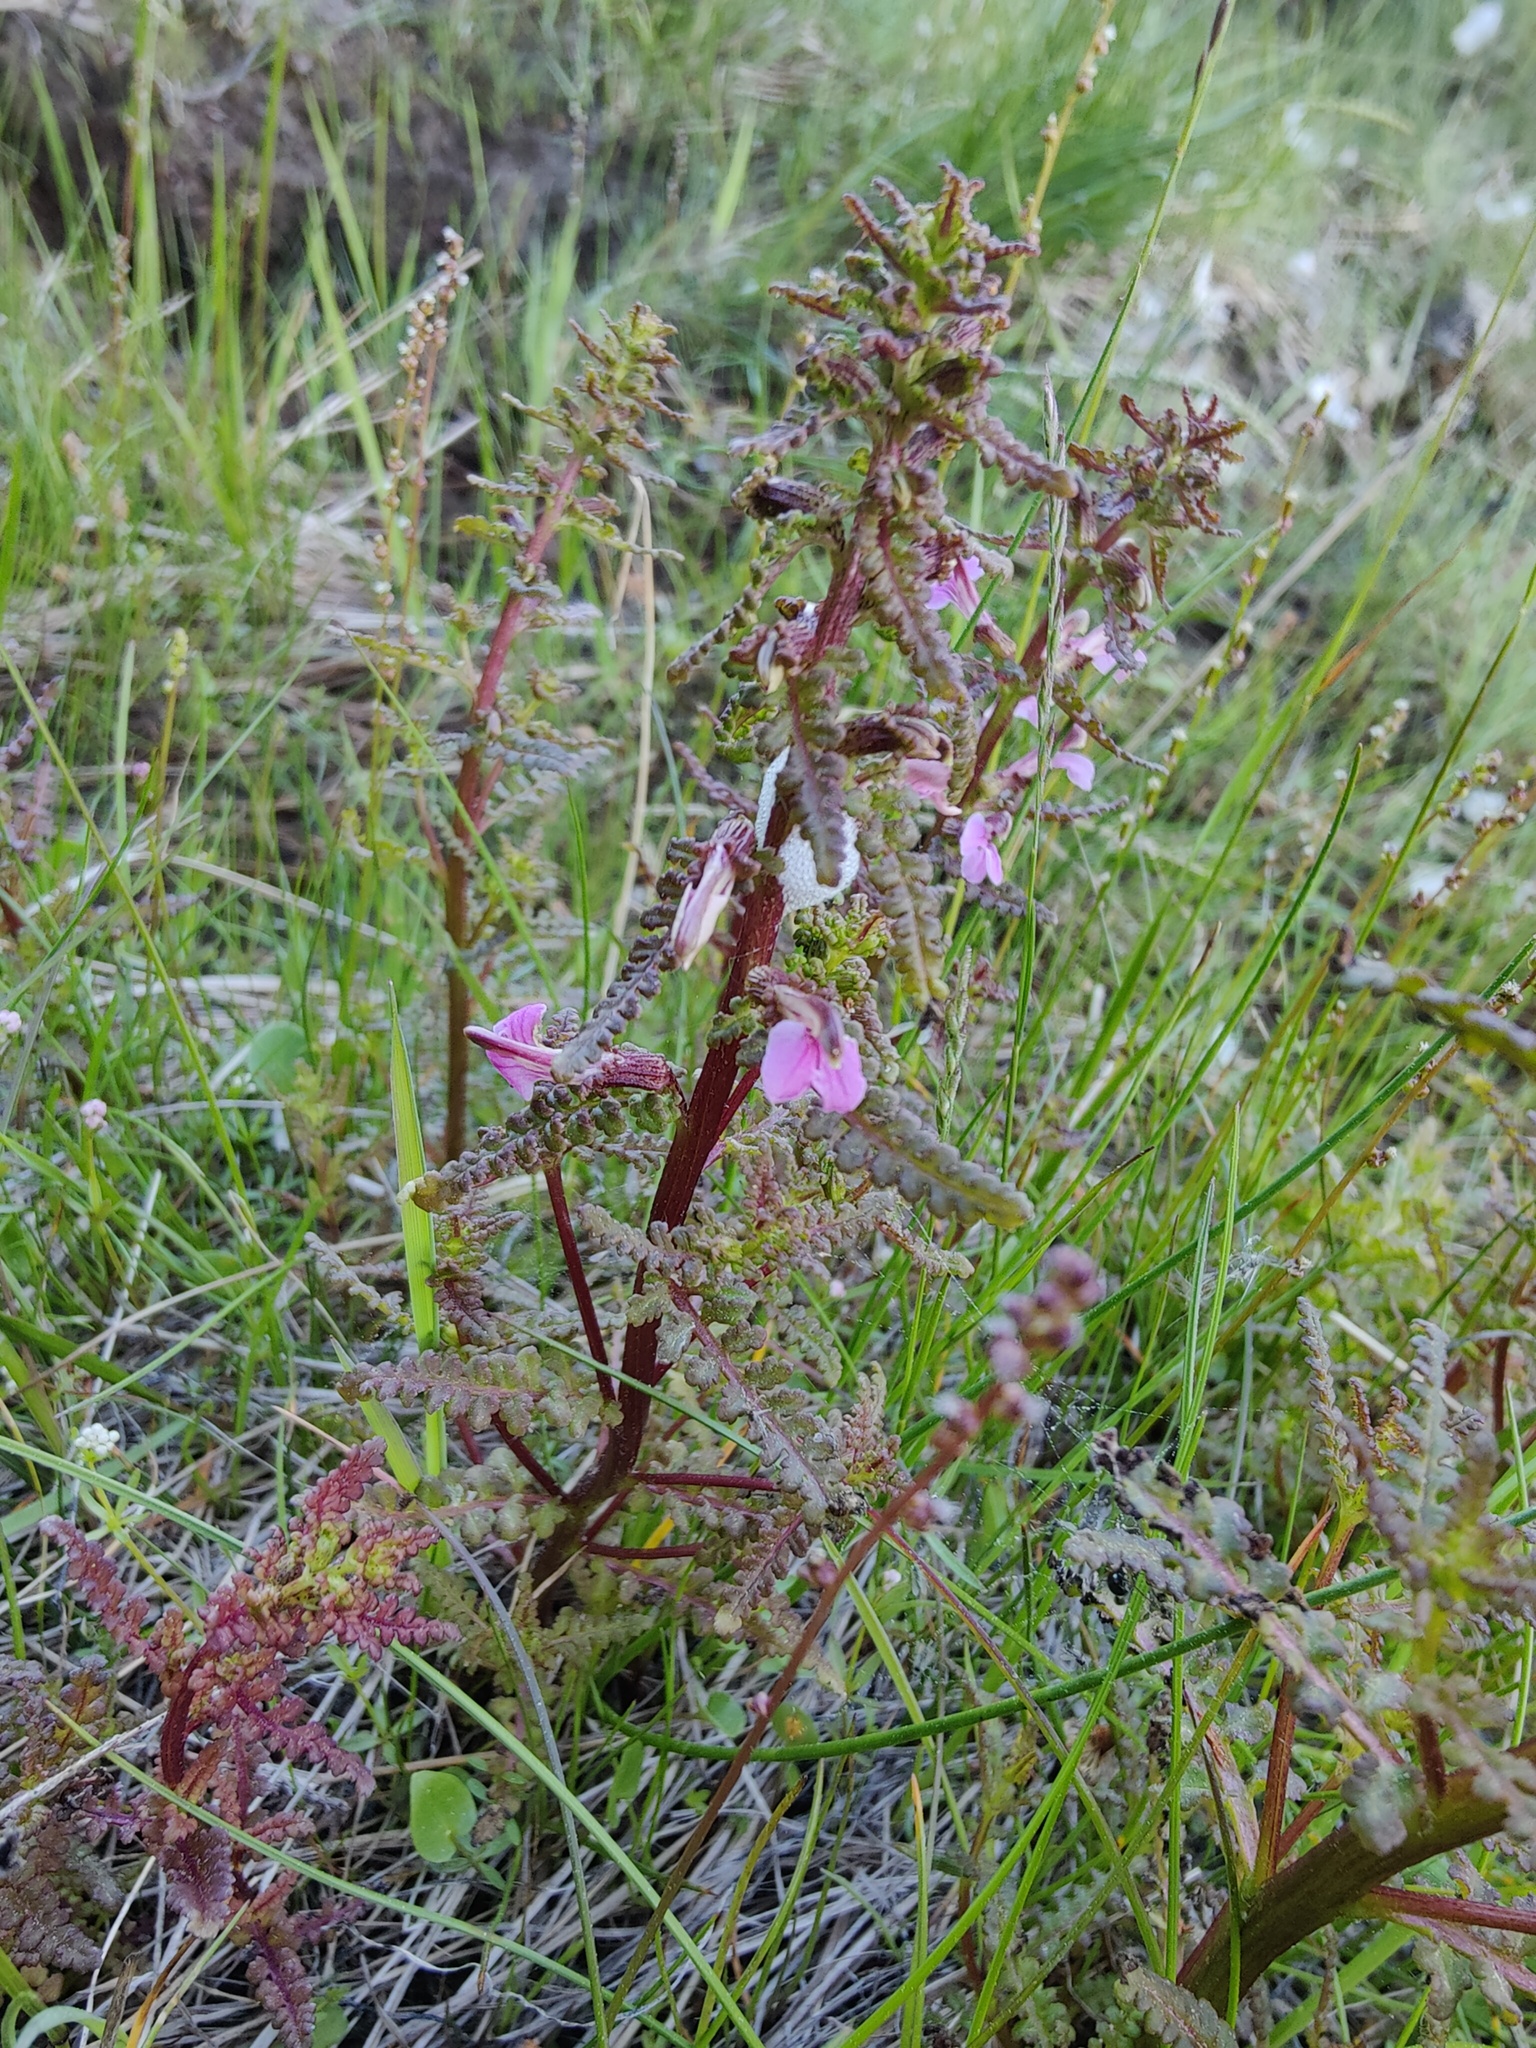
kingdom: Plantae
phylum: Tracheophyta
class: Magnoliopsida
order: Lamiales
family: Orobanchaceae
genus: Pedicularis
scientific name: Pedicularis palustris
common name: Marsh lousewort
